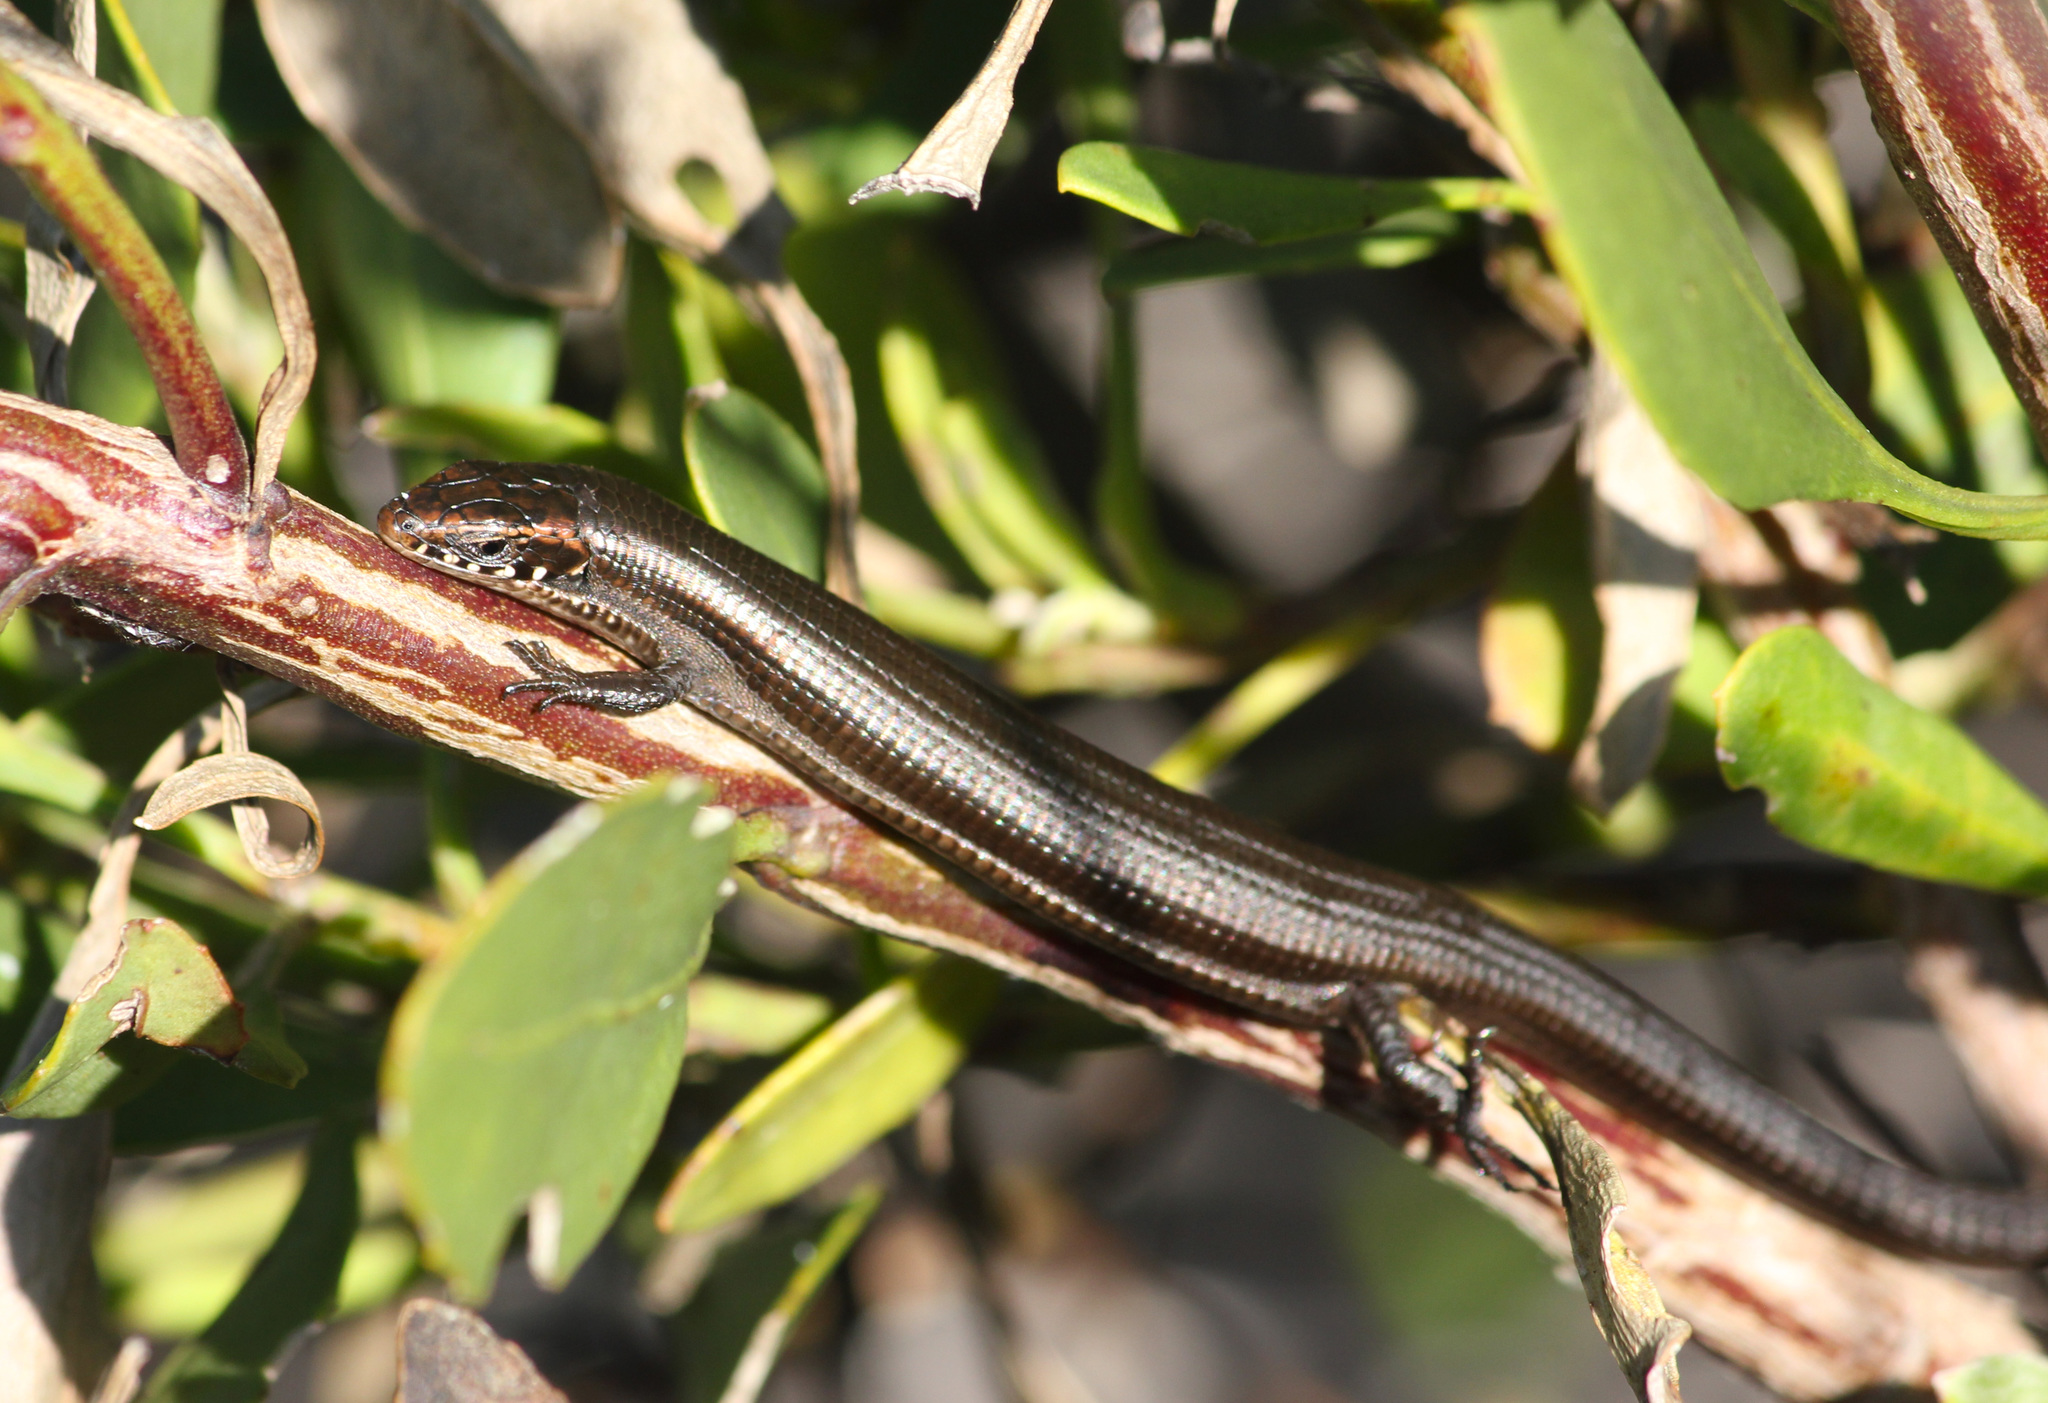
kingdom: Animalia
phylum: Chordata
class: Squamata
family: Gerrhosauridae
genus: Tetradactylus
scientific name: Tetradactylus seps
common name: Five-toed whip lizard
